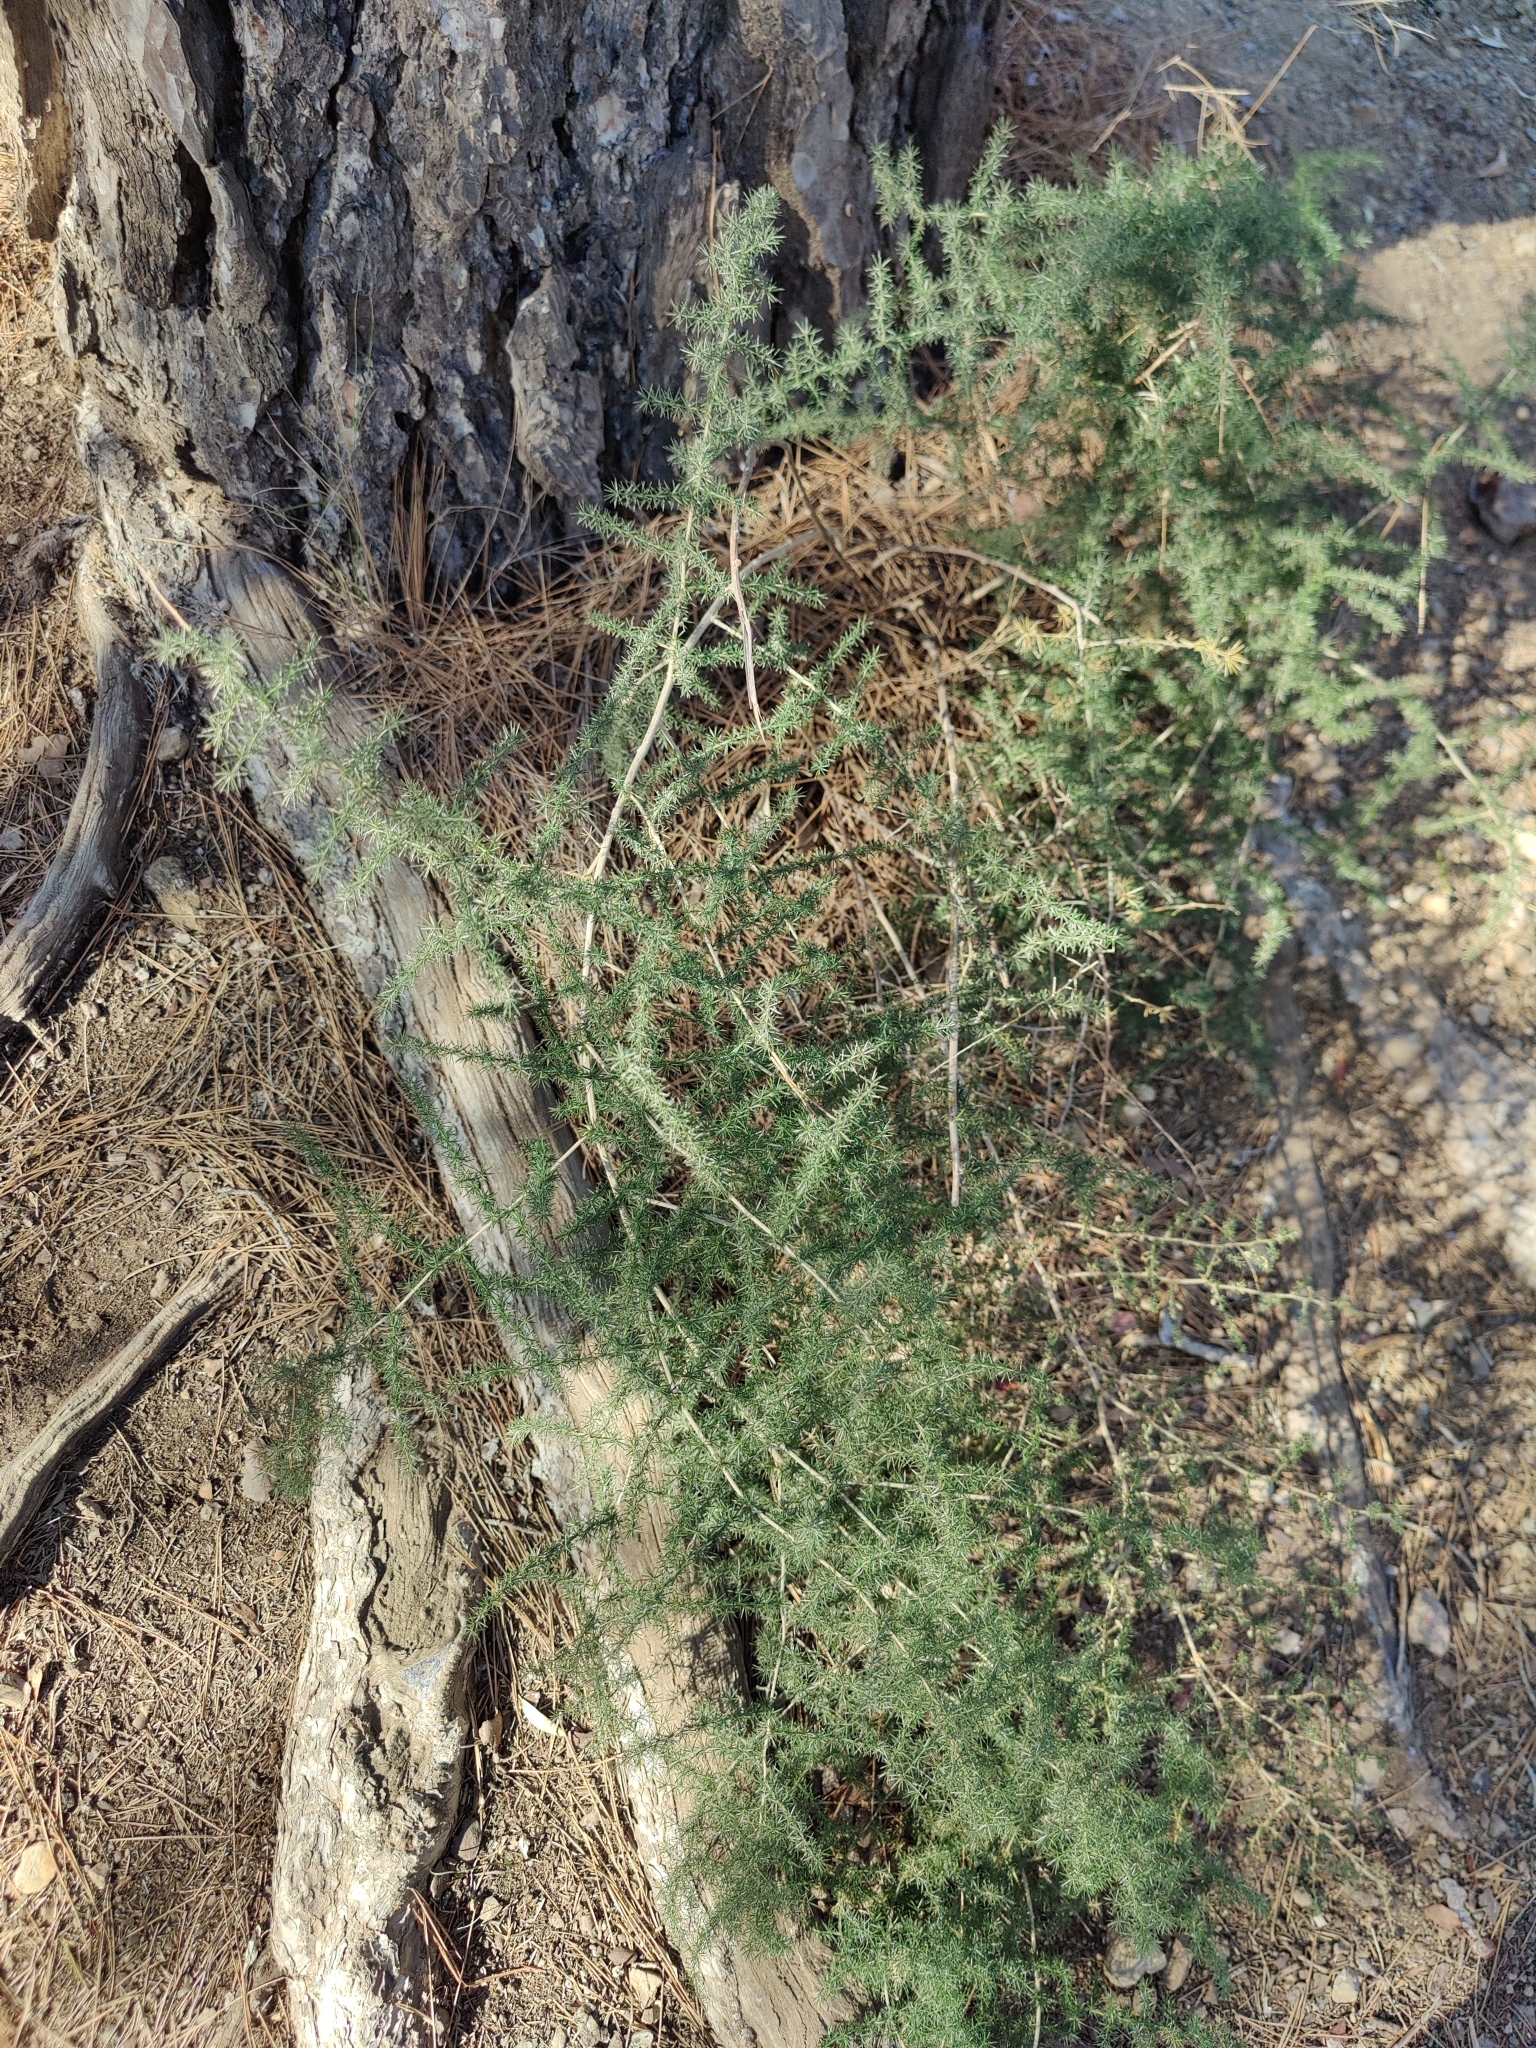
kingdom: Plantae
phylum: Tracheophyta
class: Liliopsida
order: Asparagales
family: Asparagaceae
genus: Asparagus
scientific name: Asparagus acutifolius
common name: Wild asparagus
